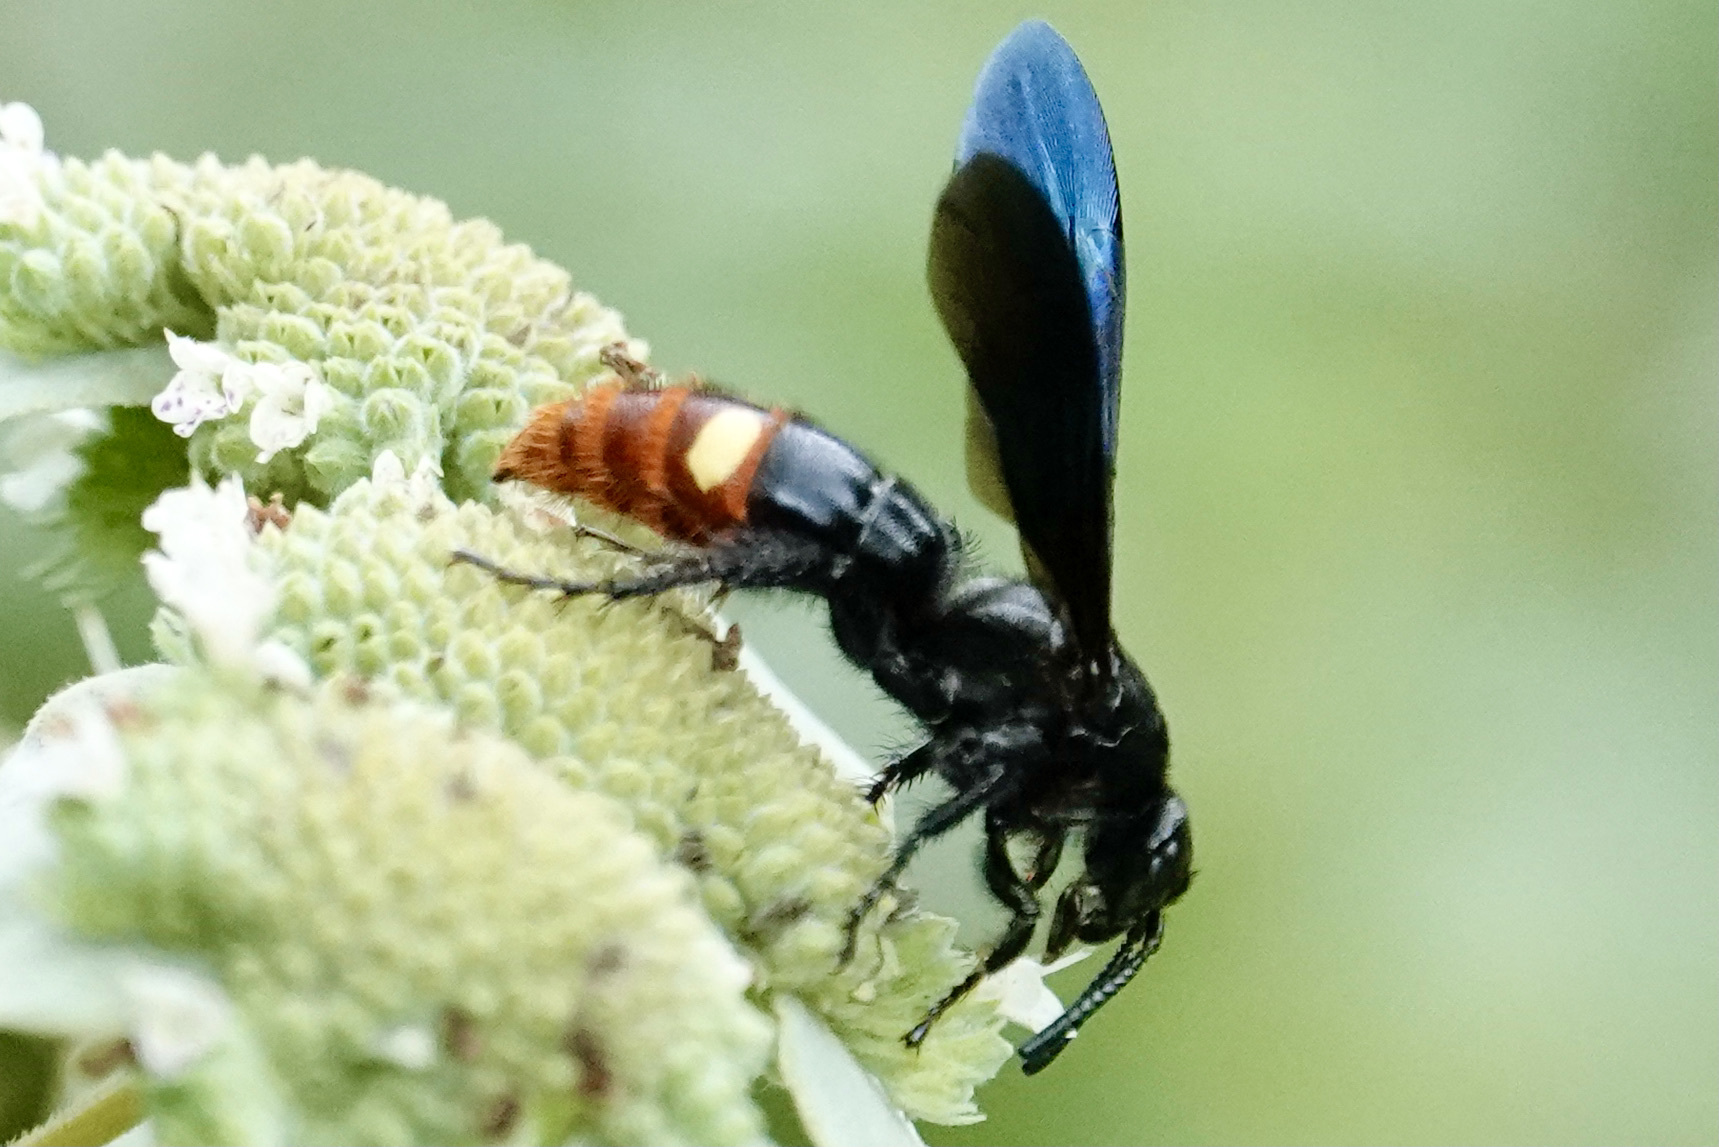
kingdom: Animalia
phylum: Arthropoda
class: Insecta
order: Hymenoptera
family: Scoliidae
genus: Scolia
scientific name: Scolia dubia
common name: Blue-winged scoliid wasp
